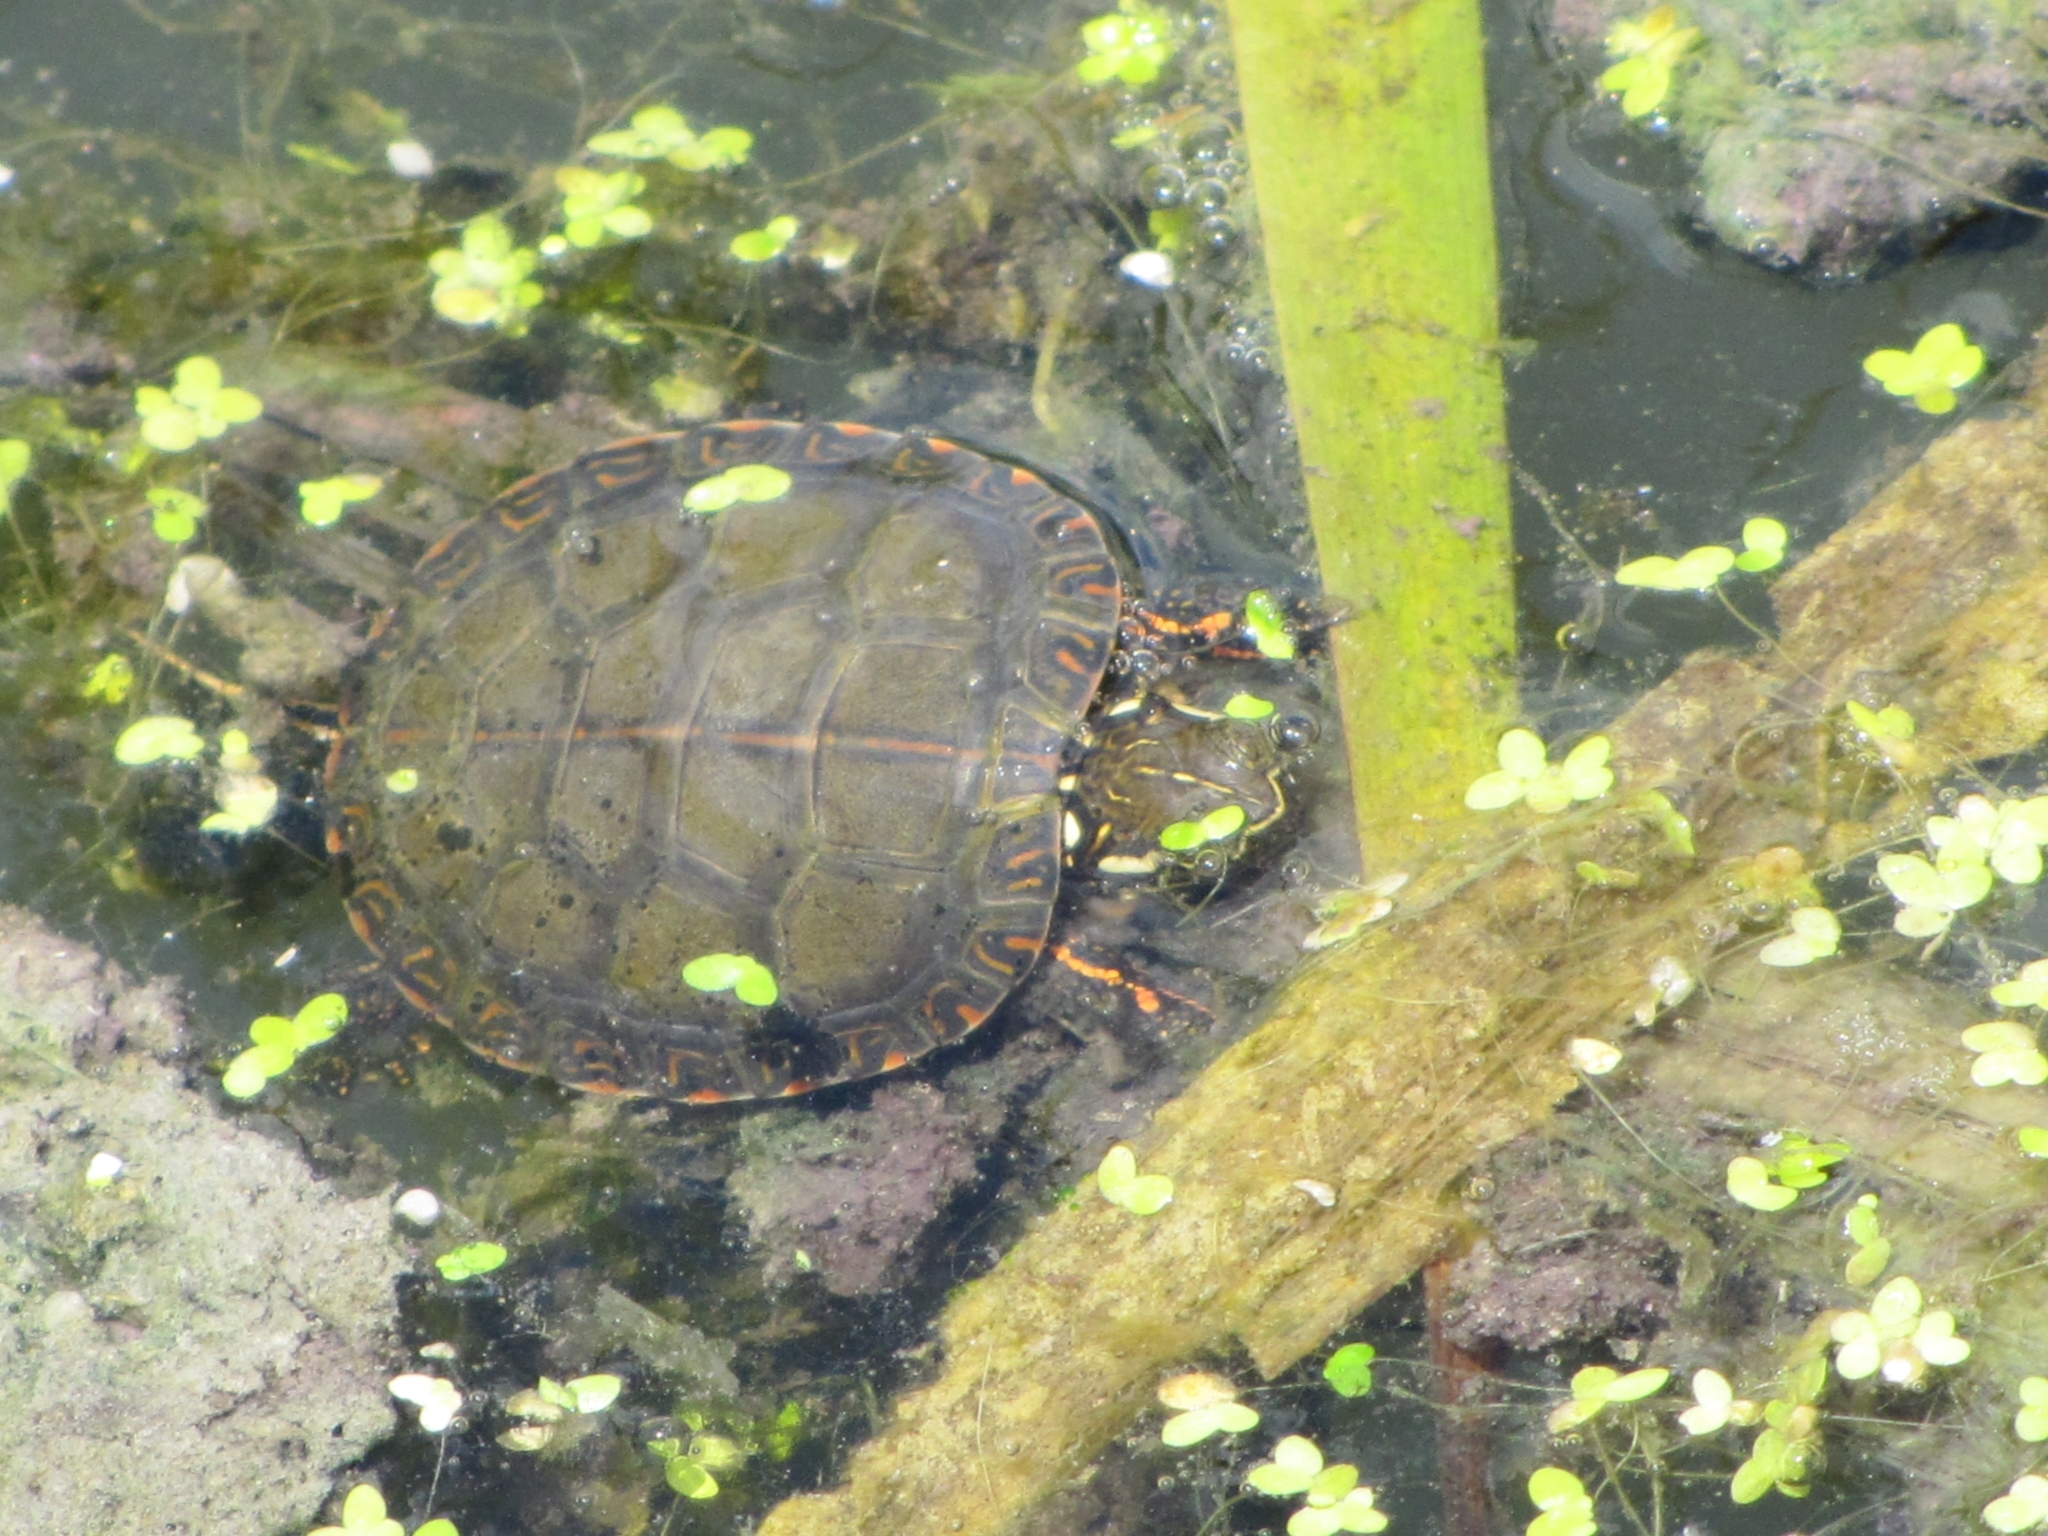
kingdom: Animalia
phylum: Chordata
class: Testudines
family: Emydidae
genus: Chrysemys
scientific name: Chrysemys picta
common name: Painted turtle
